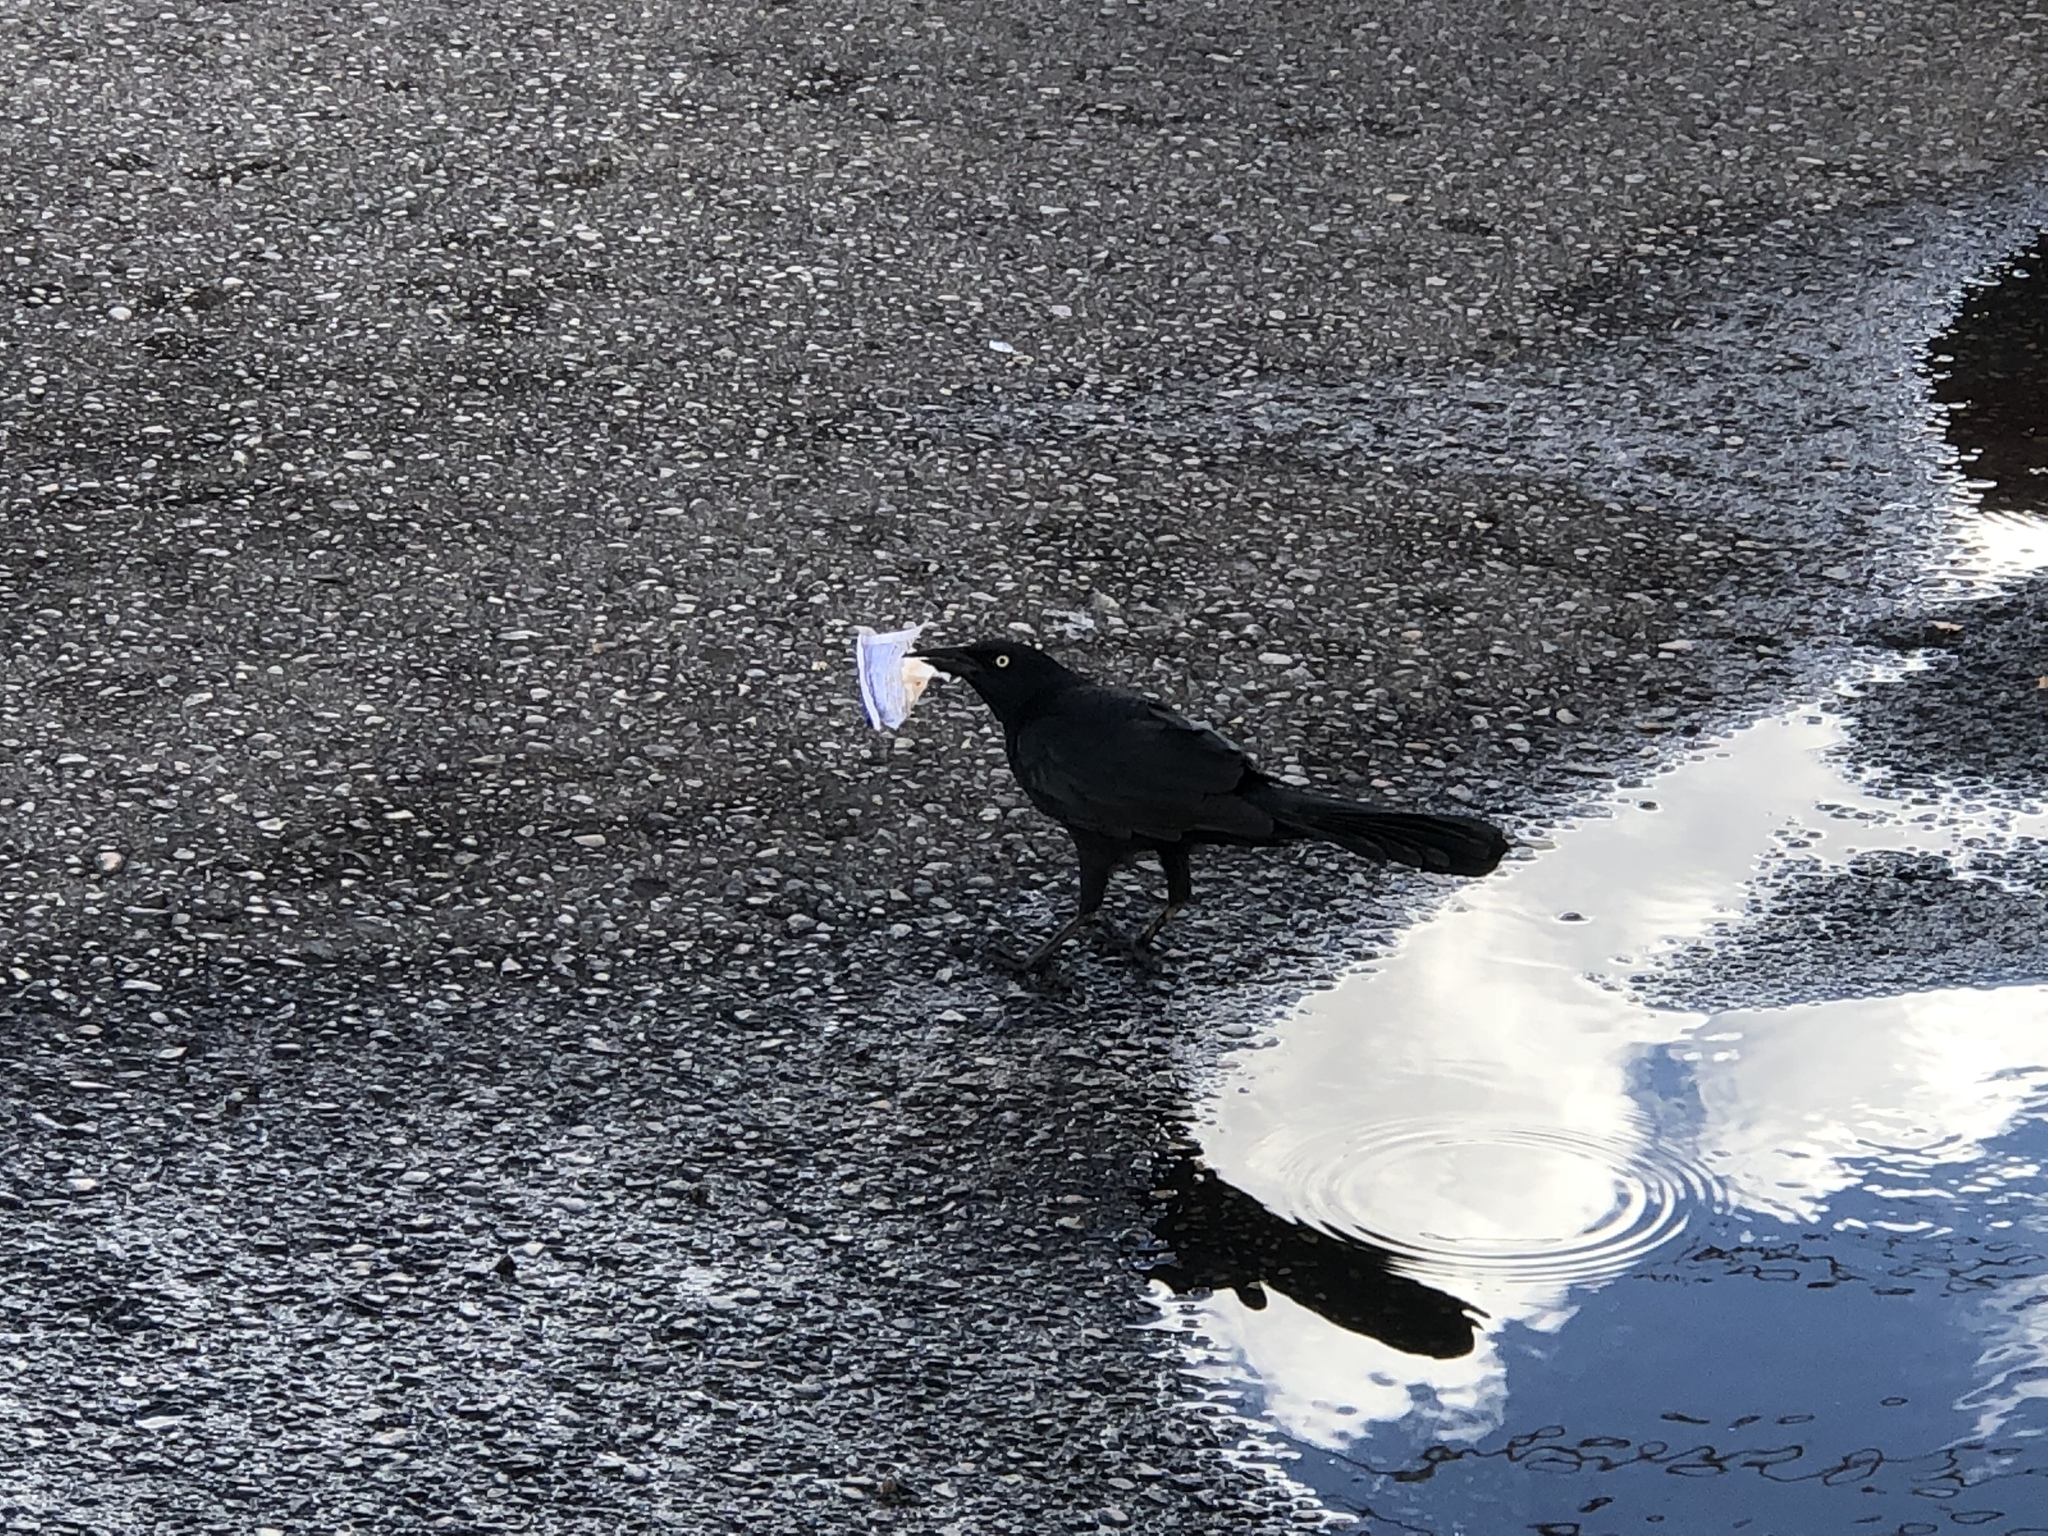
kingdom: Animalia
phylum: Chordata
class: Aves
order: Passeriformes
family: Icteridae
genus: Quiscalus
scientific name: Quiscalus mexicanus
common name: Great-tailed grackle
